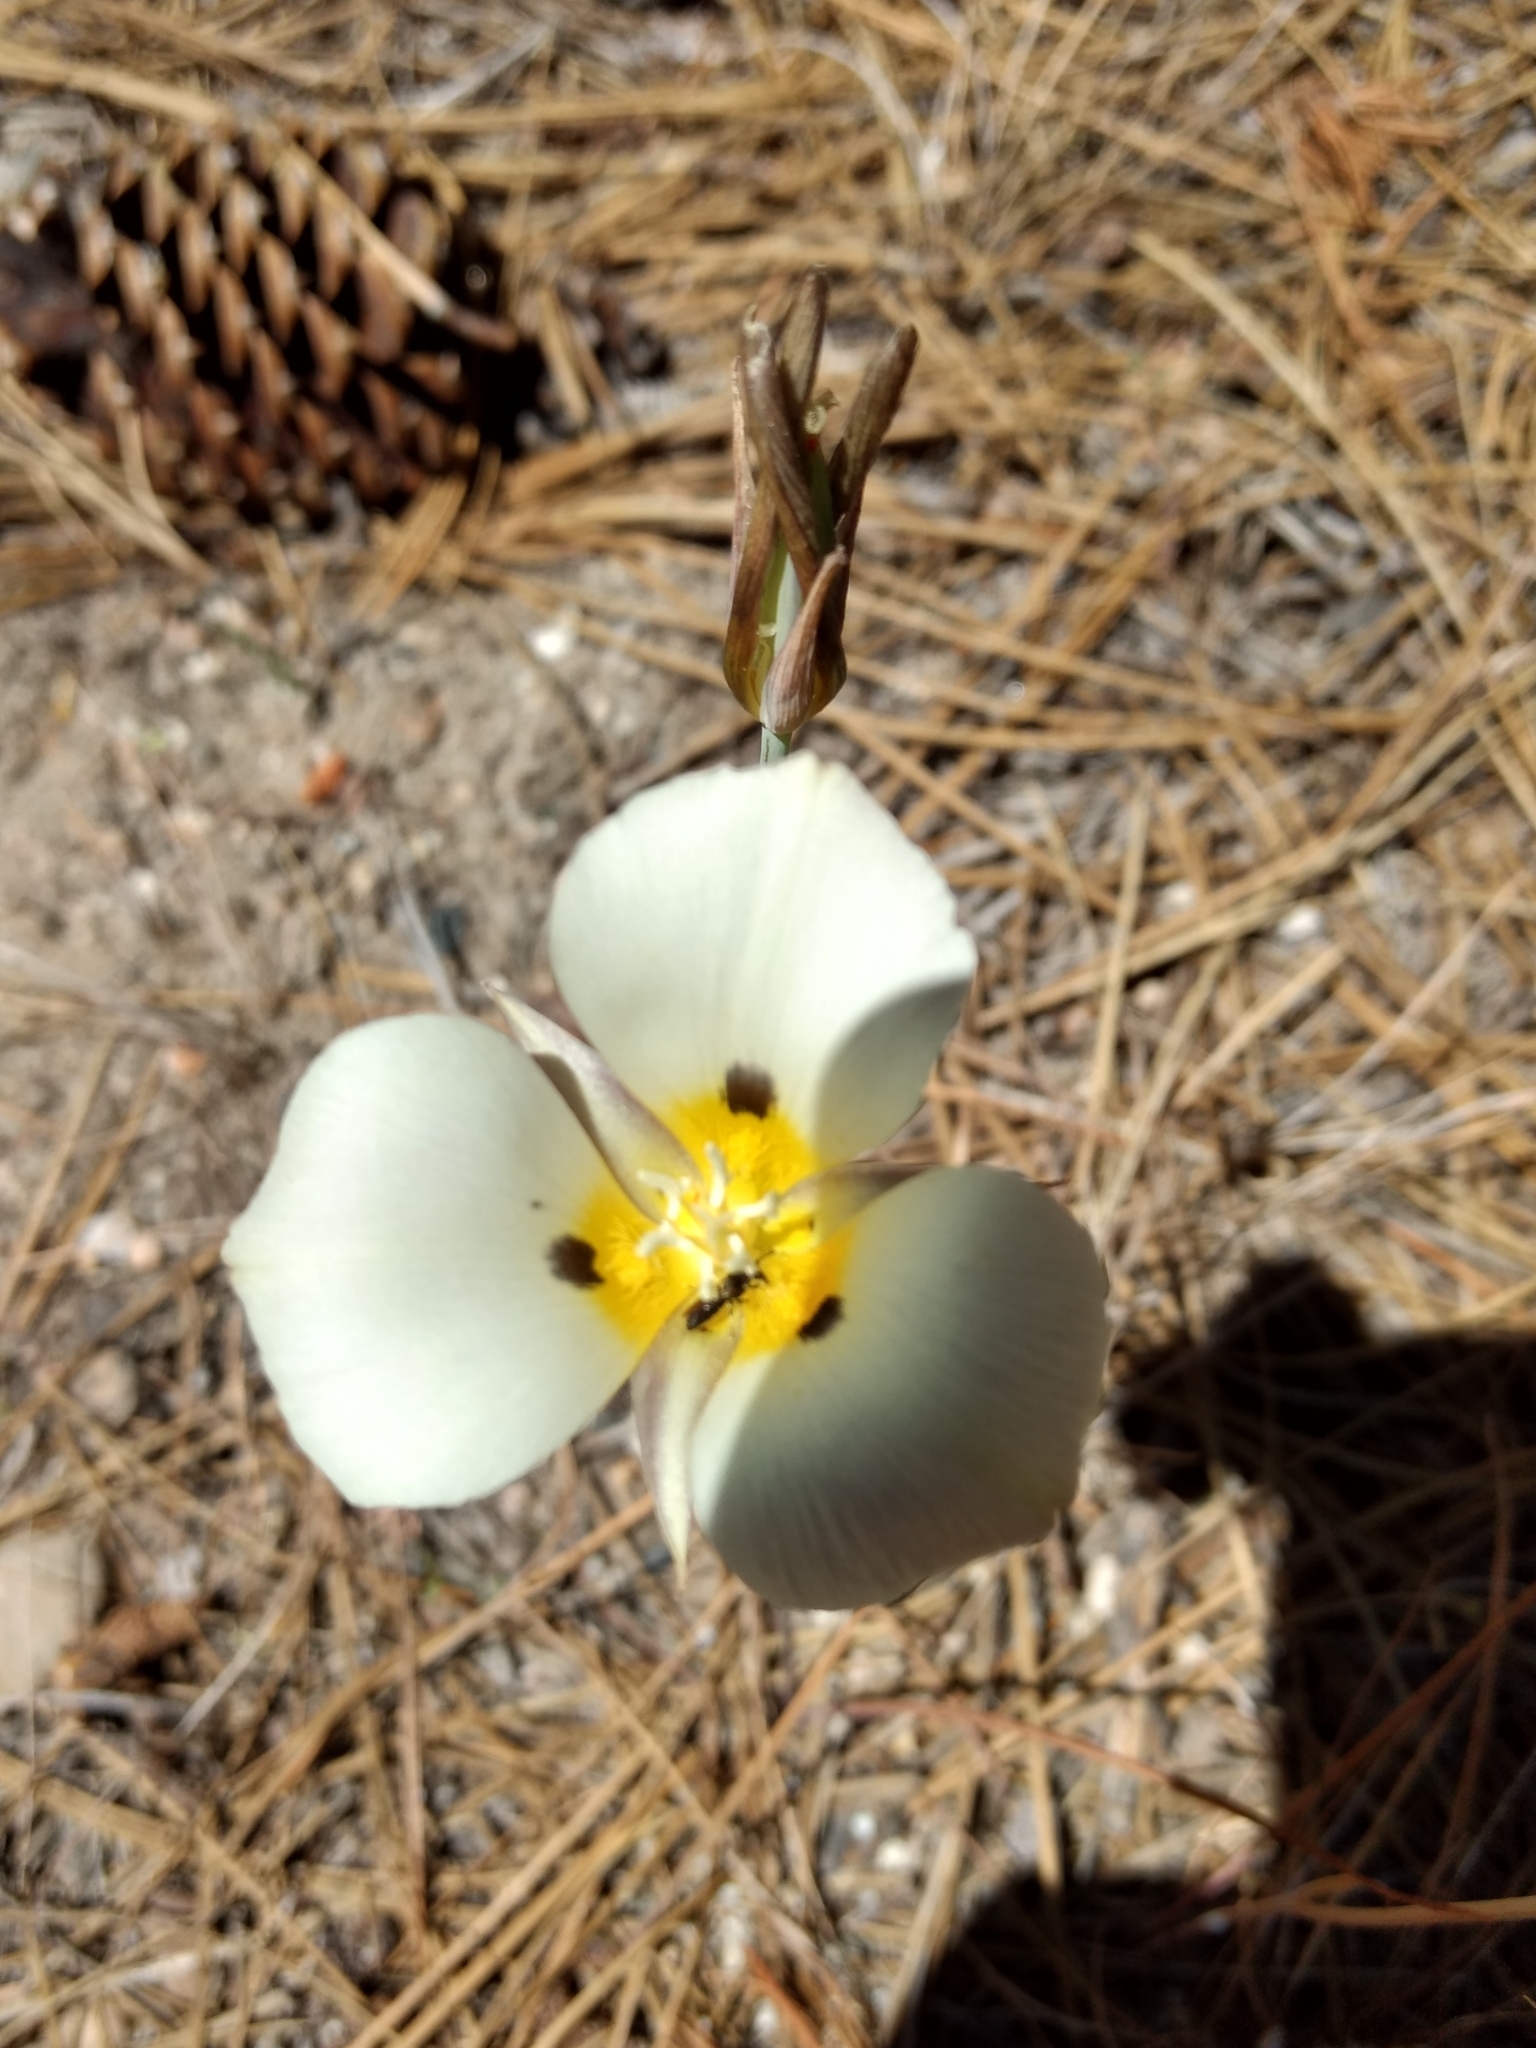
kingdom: Plantae
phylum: Tracheophyta
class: Liliopsida
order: Liliales
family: Liliaceae
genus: Calochortus
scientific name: Calochortus leichtlinii
